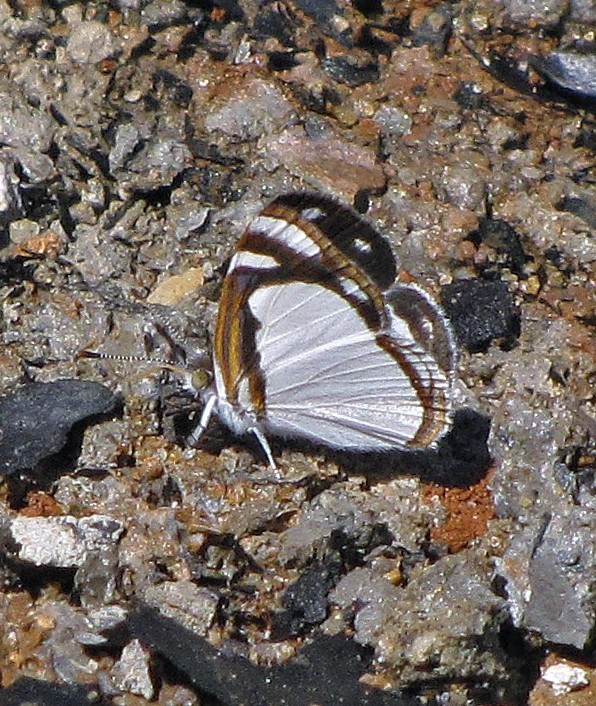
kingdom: Animalia
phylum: Arthropoda
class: Insecta
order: Lepidoptera
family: Nymphalidae
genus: Dynamine
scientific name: Dynamine agacles
